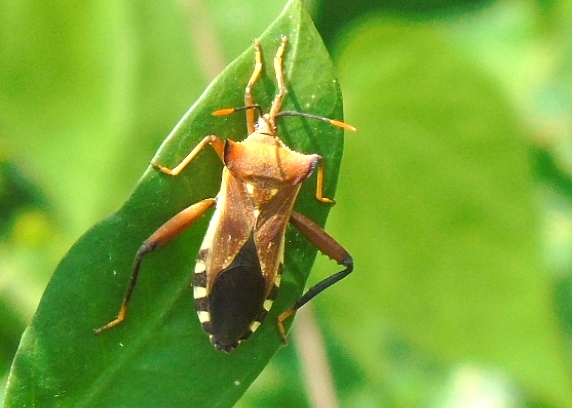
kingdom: Animalia
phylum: Arthropoda
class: Insecta
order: Hemiptera
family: Coreidae
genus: Mozena
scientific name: Mozena lunata
